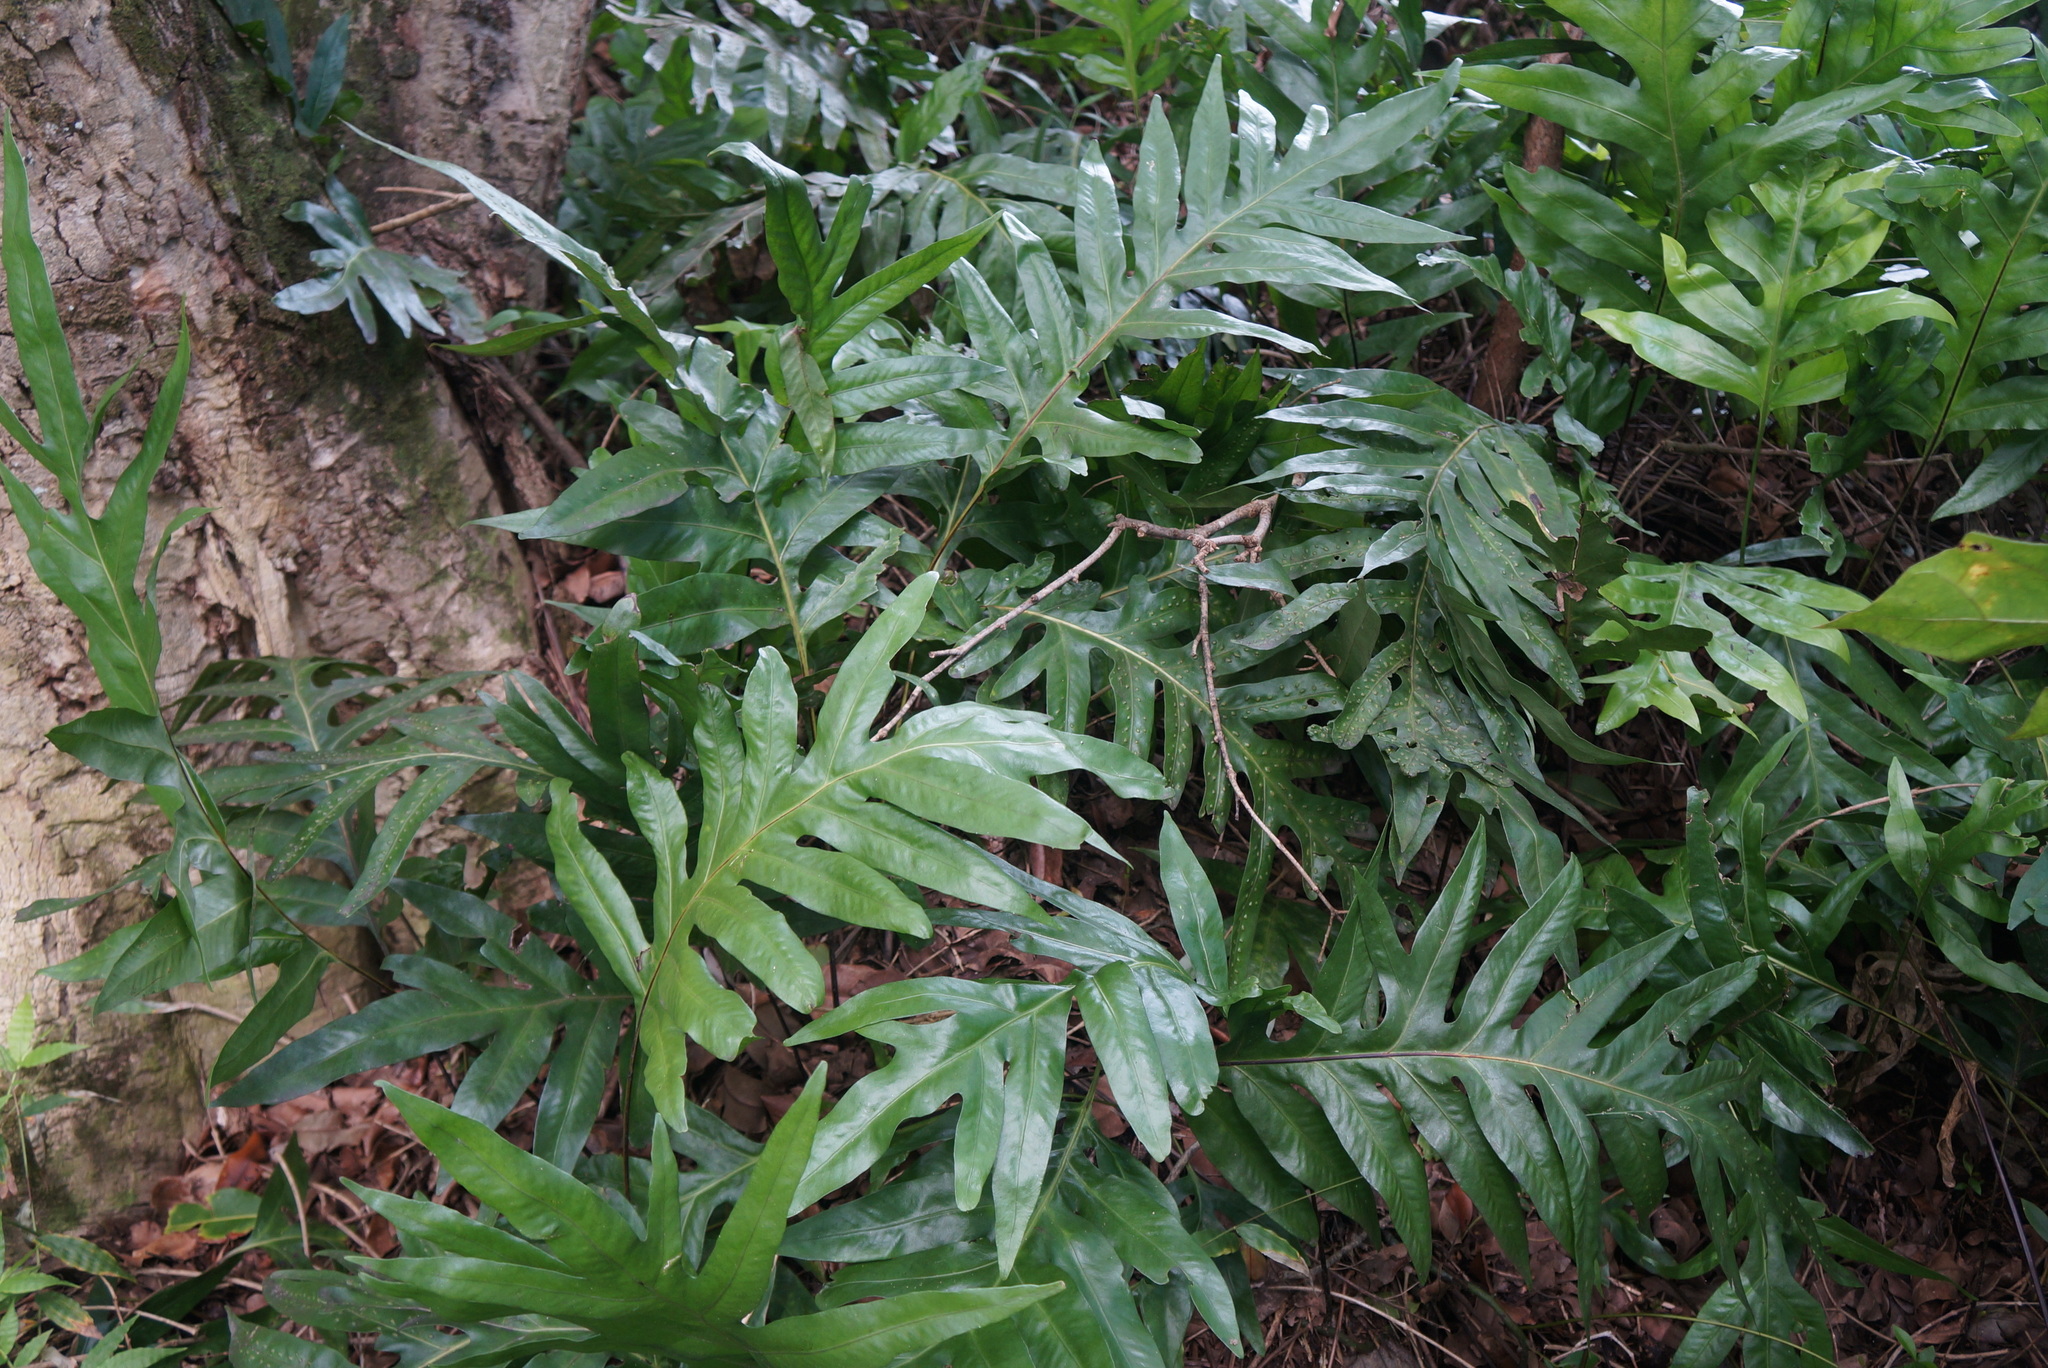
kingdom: Plantae
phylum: Tracheophyta
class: Polypodiopsida
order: Polypodiales
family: Polypodiaceae
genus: Microsorum
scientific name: Microsorum grossum
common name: Musk fern
